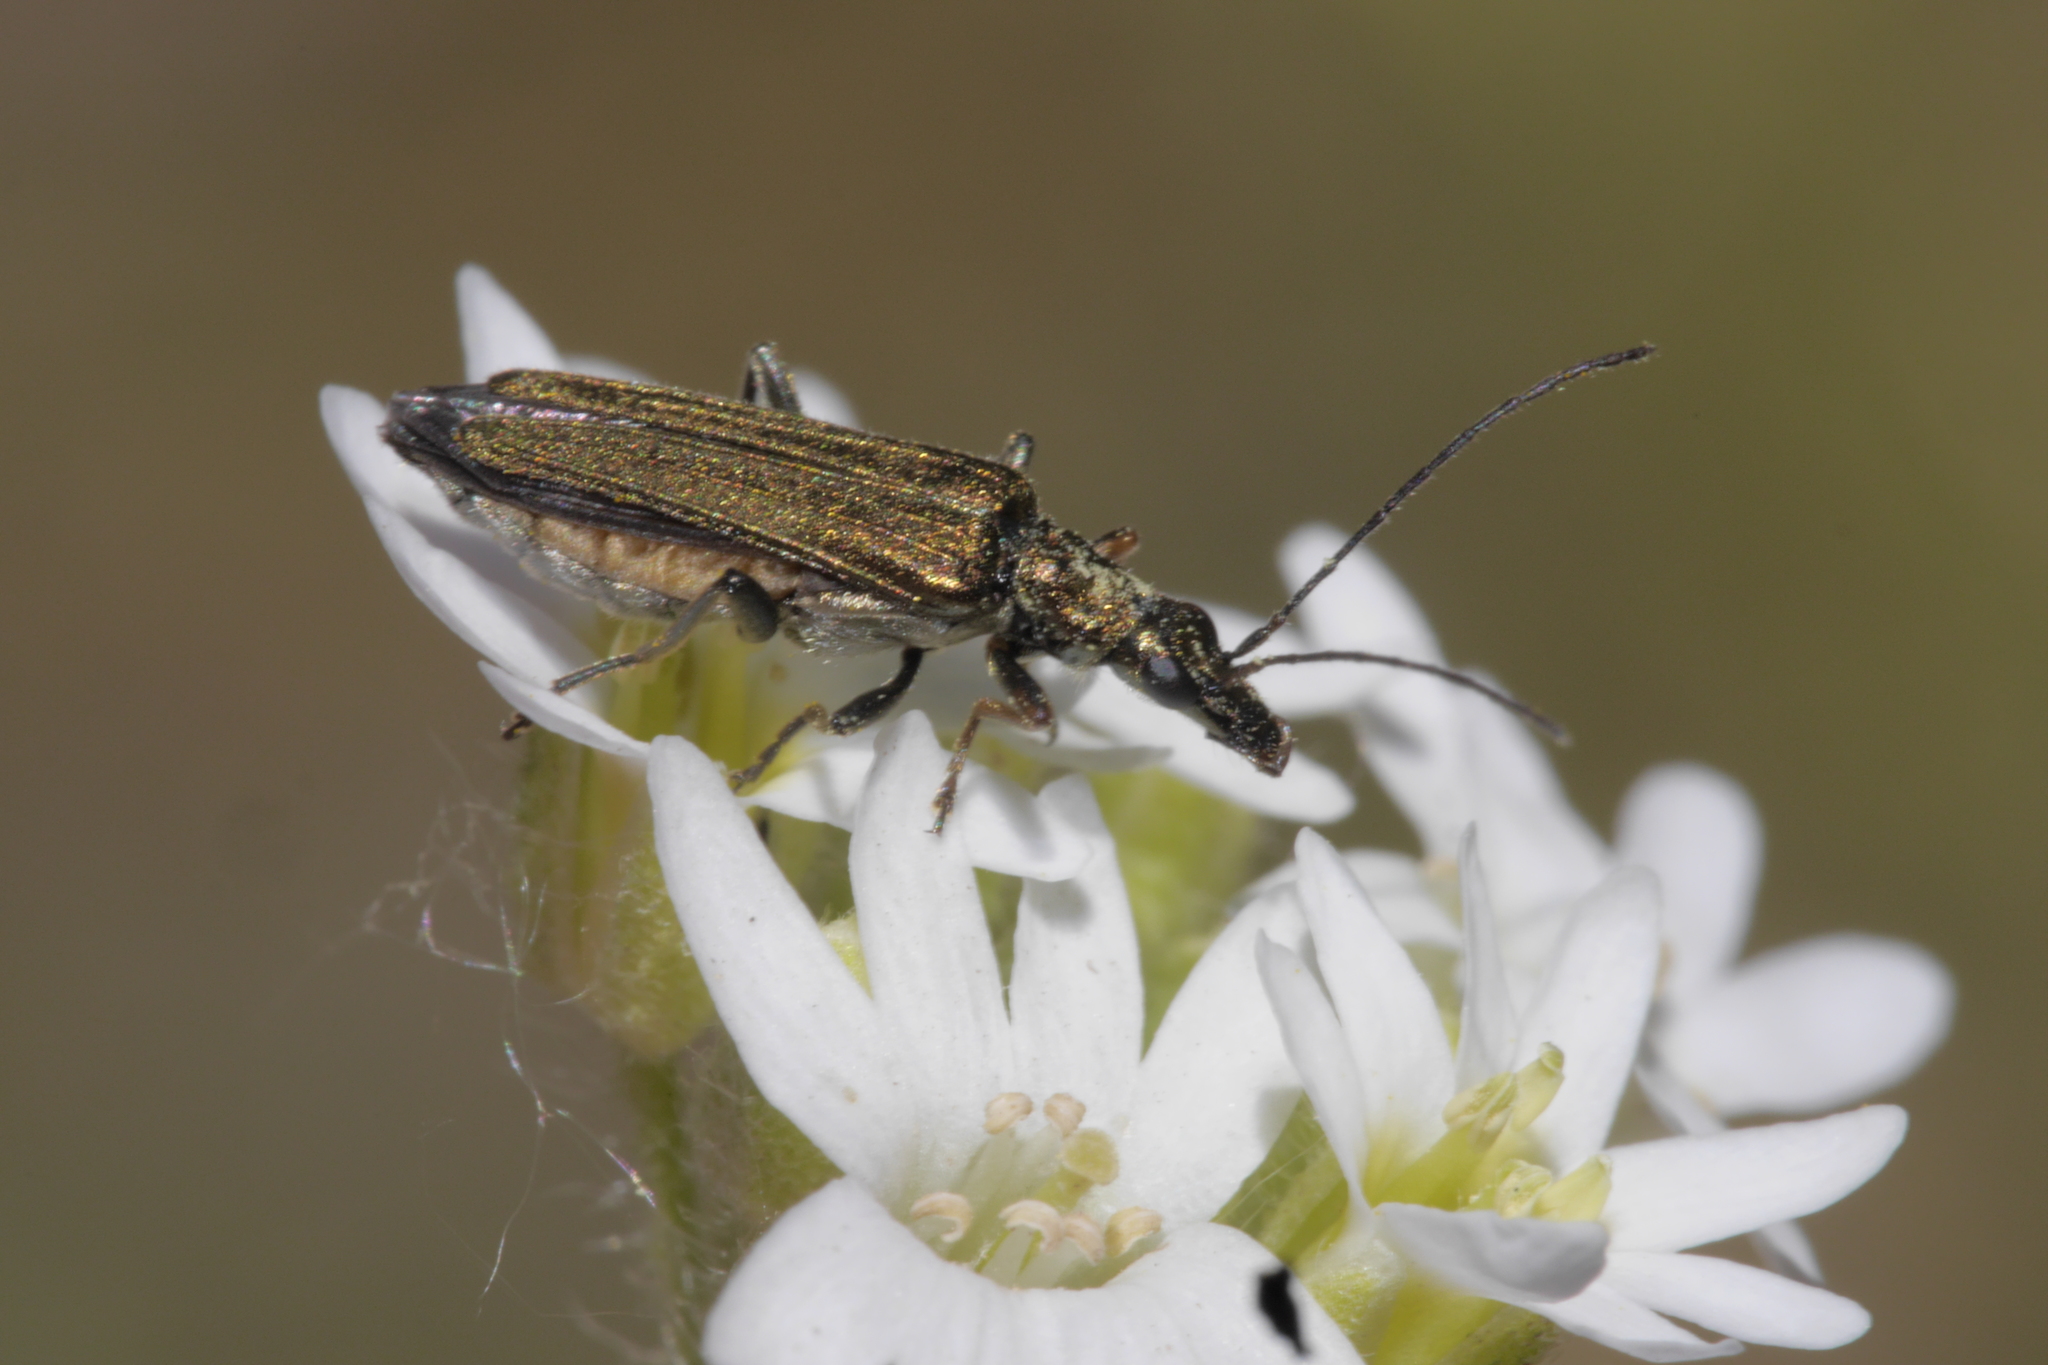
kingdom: Animalia
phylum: Arthropoda
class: Insecta
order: Coleoptera
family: Oedemeridae
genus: Oedemera
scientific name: Oedemera flavipes
